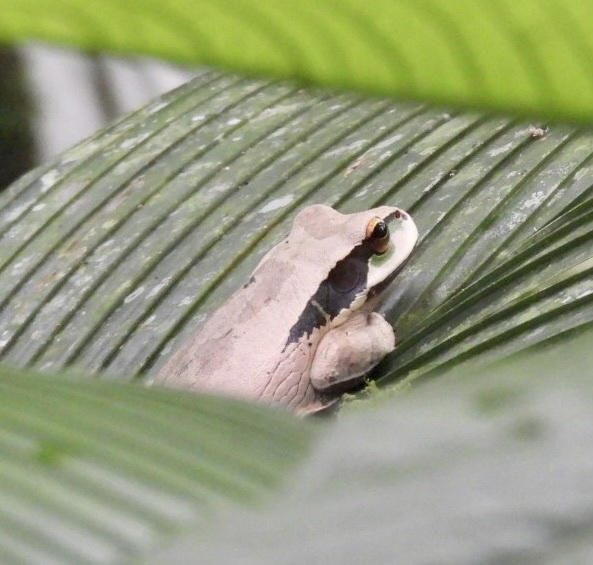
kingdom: Animalia
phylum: Chordata
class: Amphibia
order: Anura
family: Hylidae
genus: Smilisca
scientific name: Smilisca phaeota
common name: Central american smilisca
